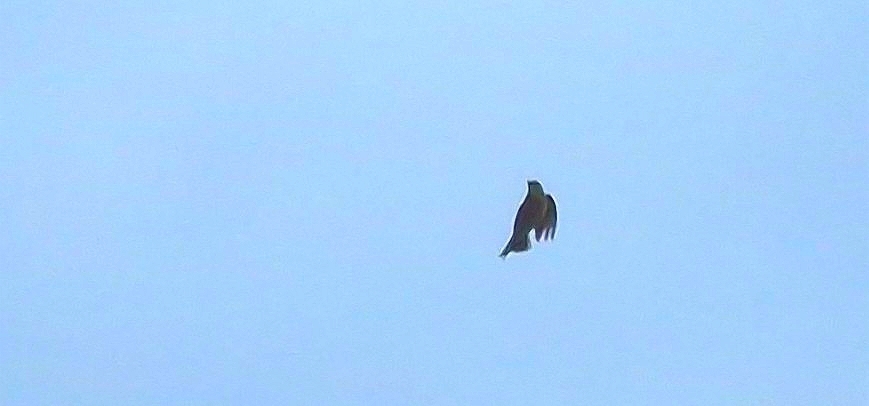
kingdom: Animalia
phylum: Chordata
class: Aves
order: Passeriformes
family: Alaudidae
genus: Alauda
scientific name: Alauda arvensis
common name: Eurasian skylark
